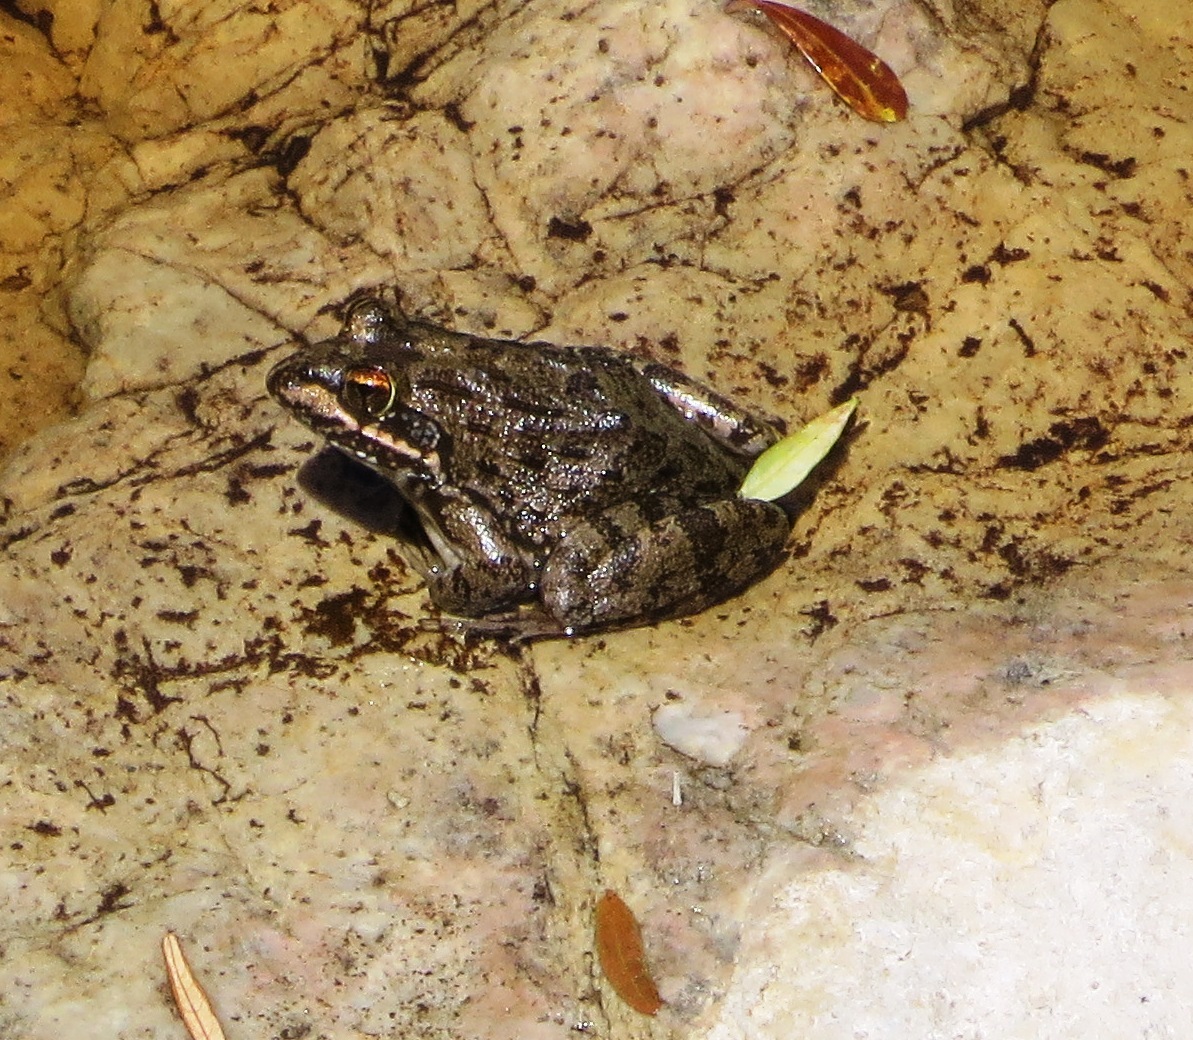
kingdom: Animalia
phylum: Chordata
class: Amphibia
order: Anura
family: Pyxicephalidae
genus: Amietia
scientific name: Amietia fuscigula
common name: Cape rana
